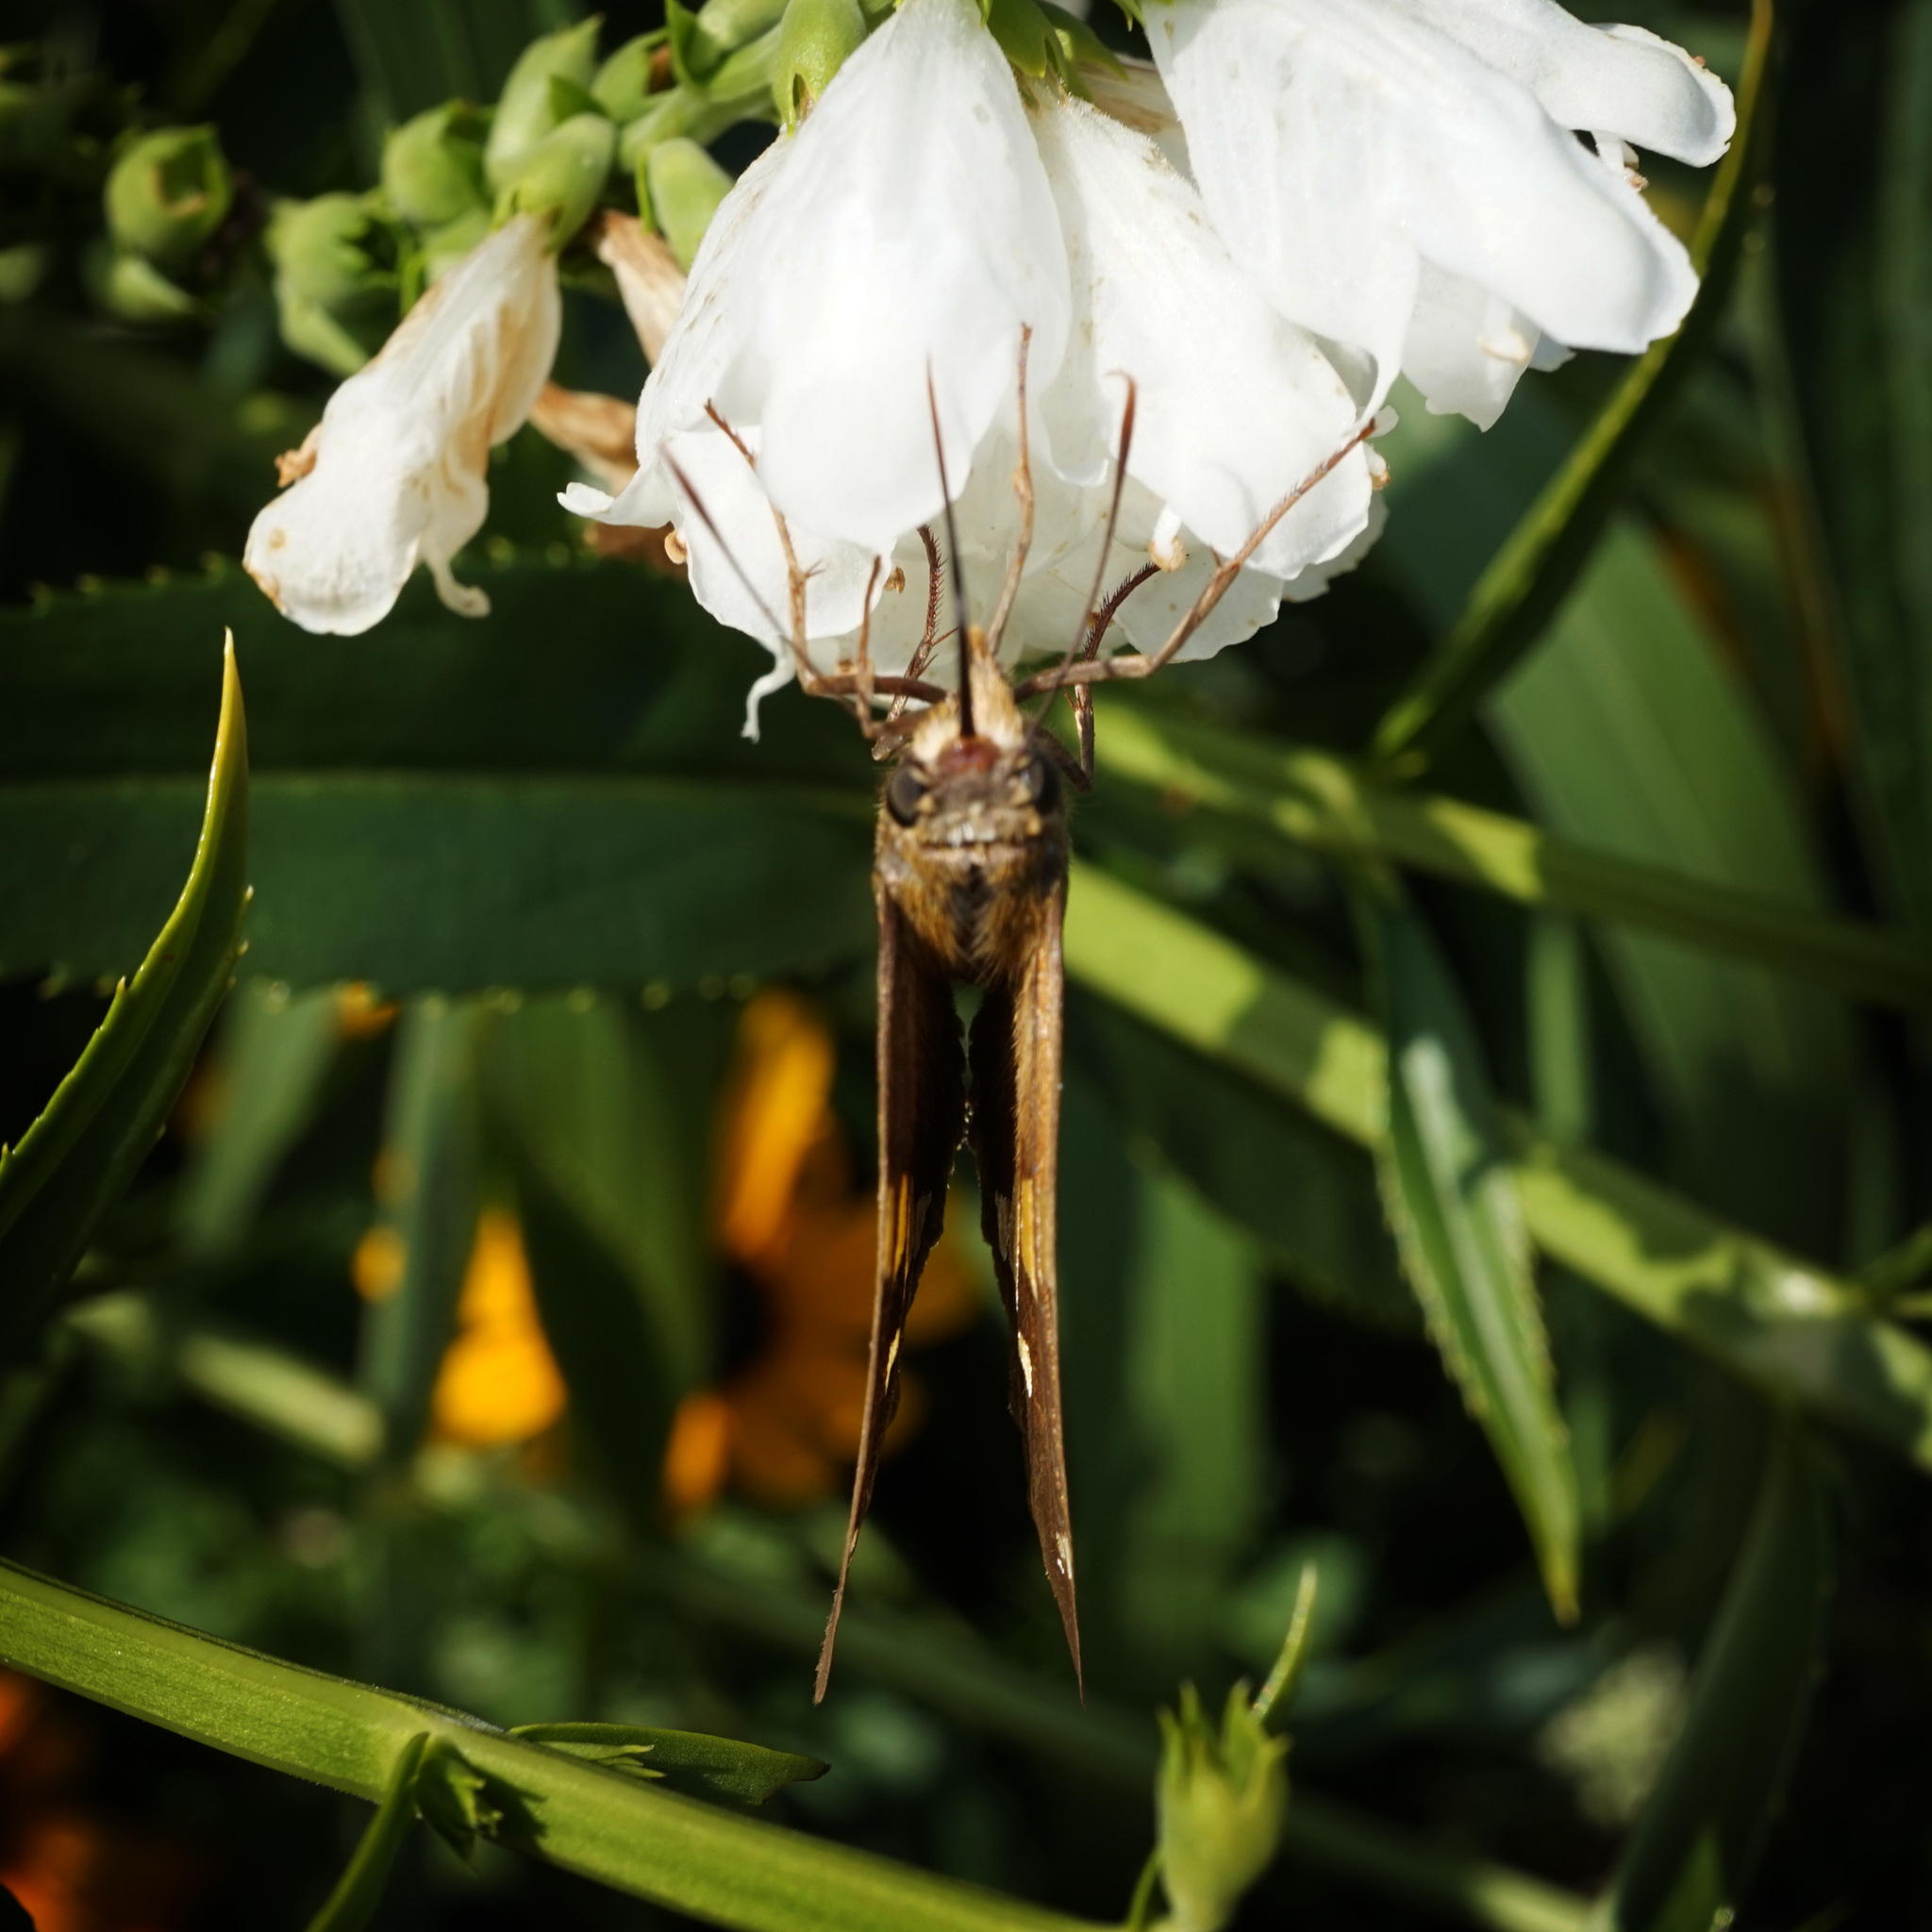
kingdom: Animalia
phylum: Arthropoda
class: Insecta
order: Lepidoptera
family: Hesperiidae
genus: Epargyreus
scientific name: Epargyreus clarus
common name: Silver-spotted skipper
